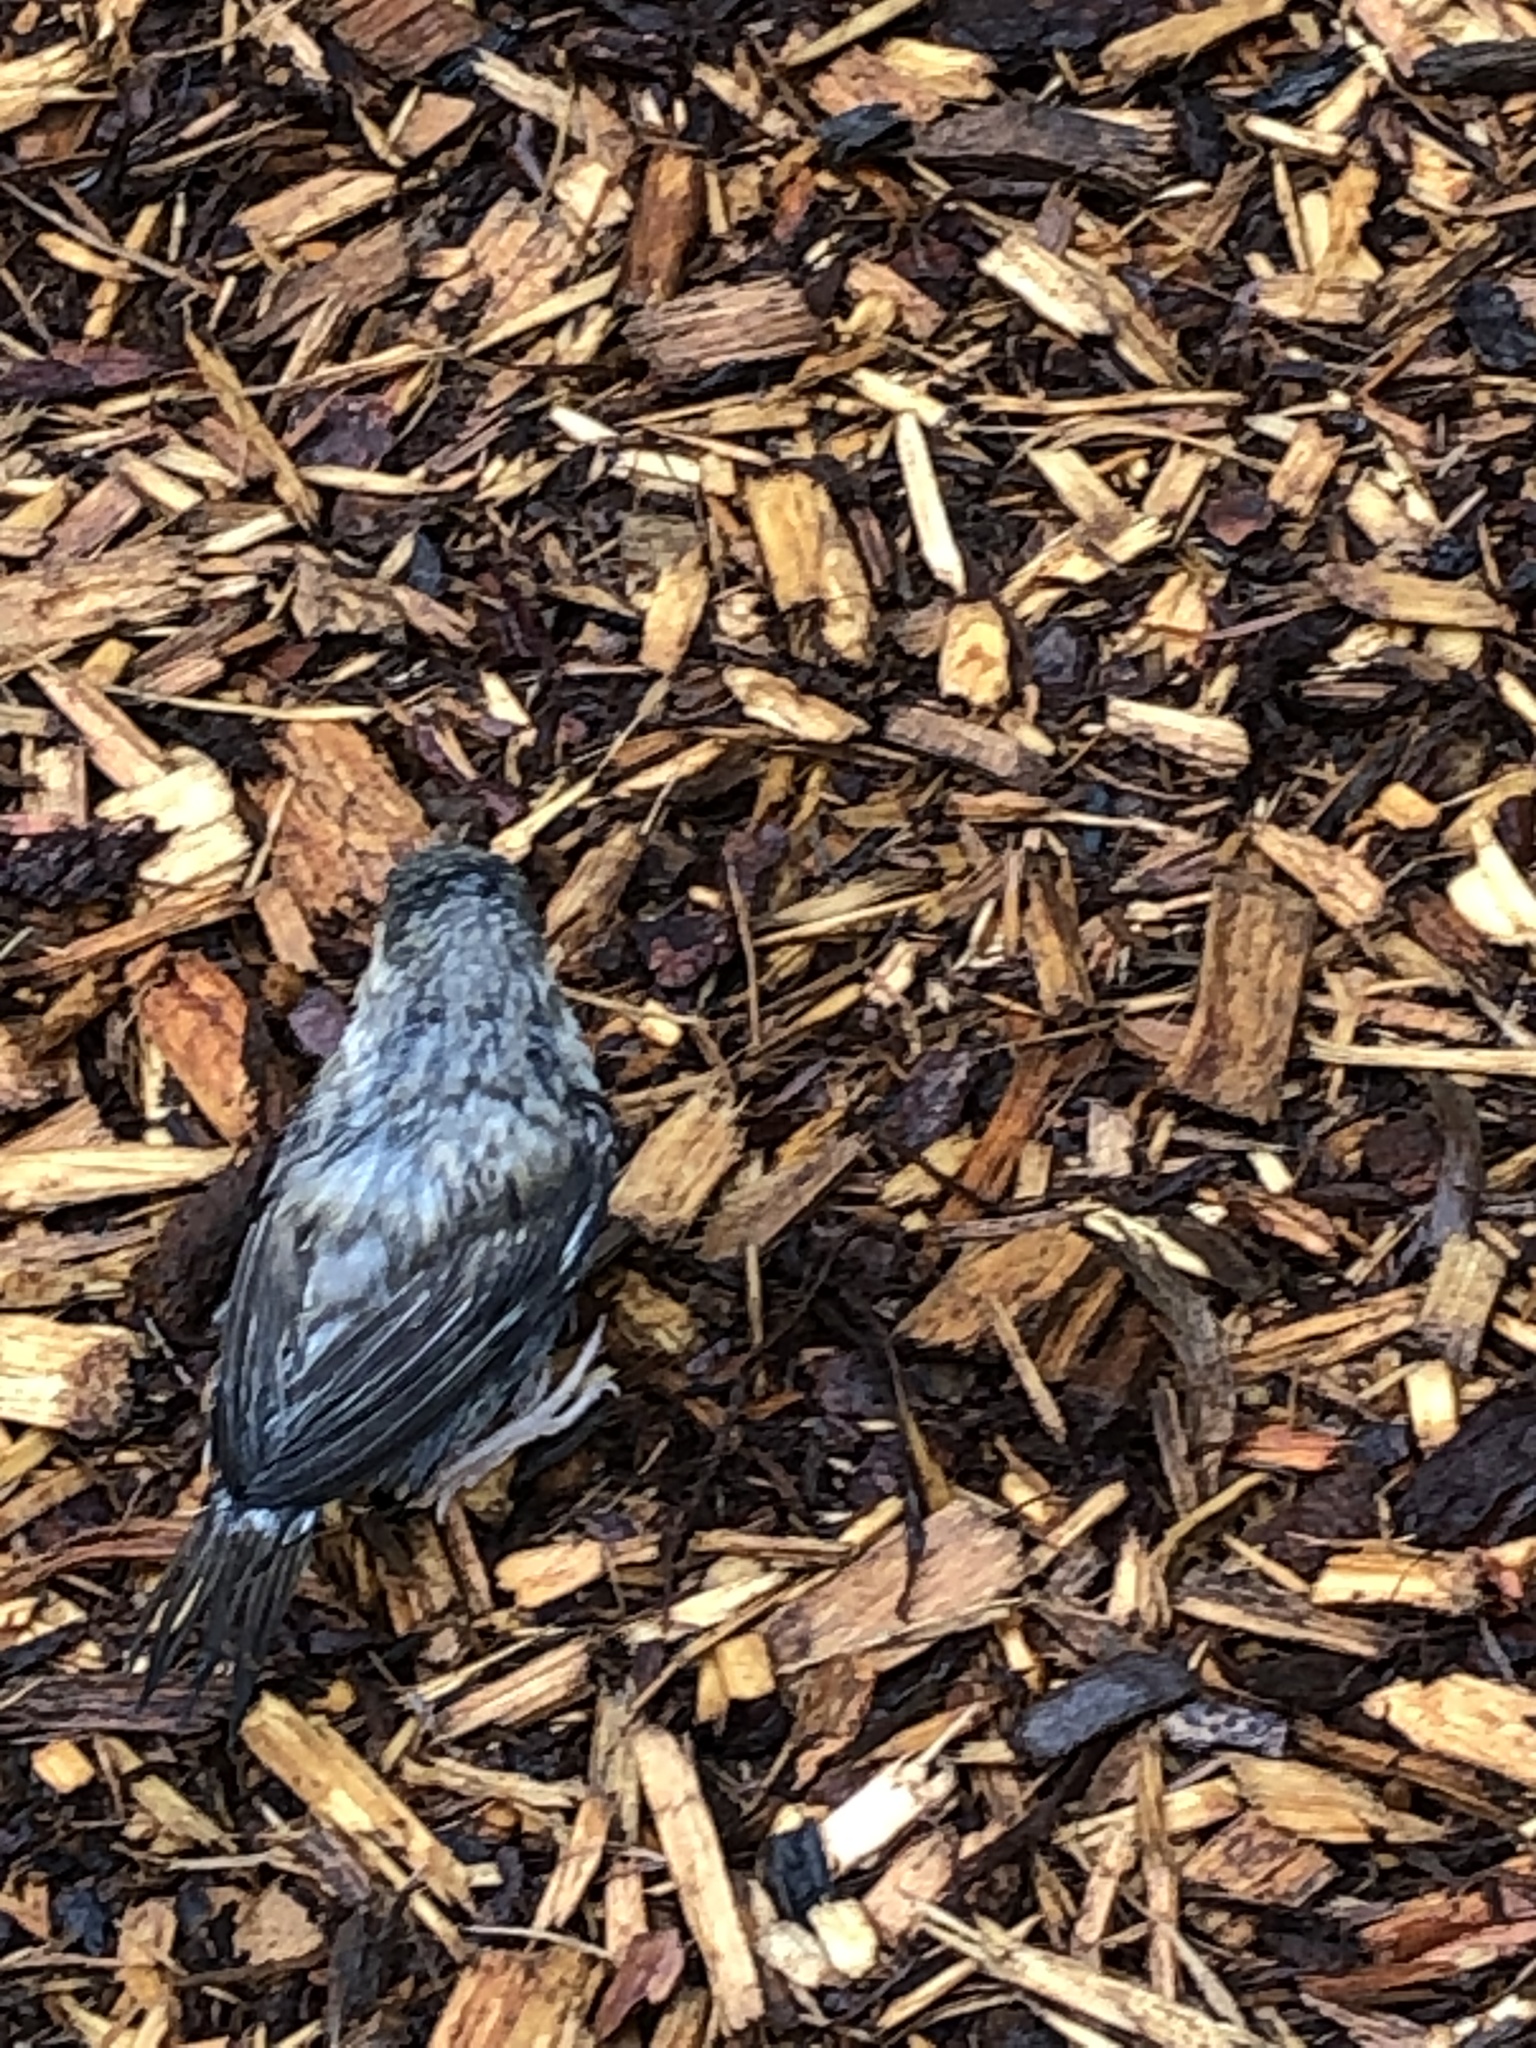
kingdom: Animalia
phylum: Chordata
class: Aves
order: Passeriformes
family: Passeridae
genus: Passer
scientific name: Passer domesticus
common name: House sparrow
